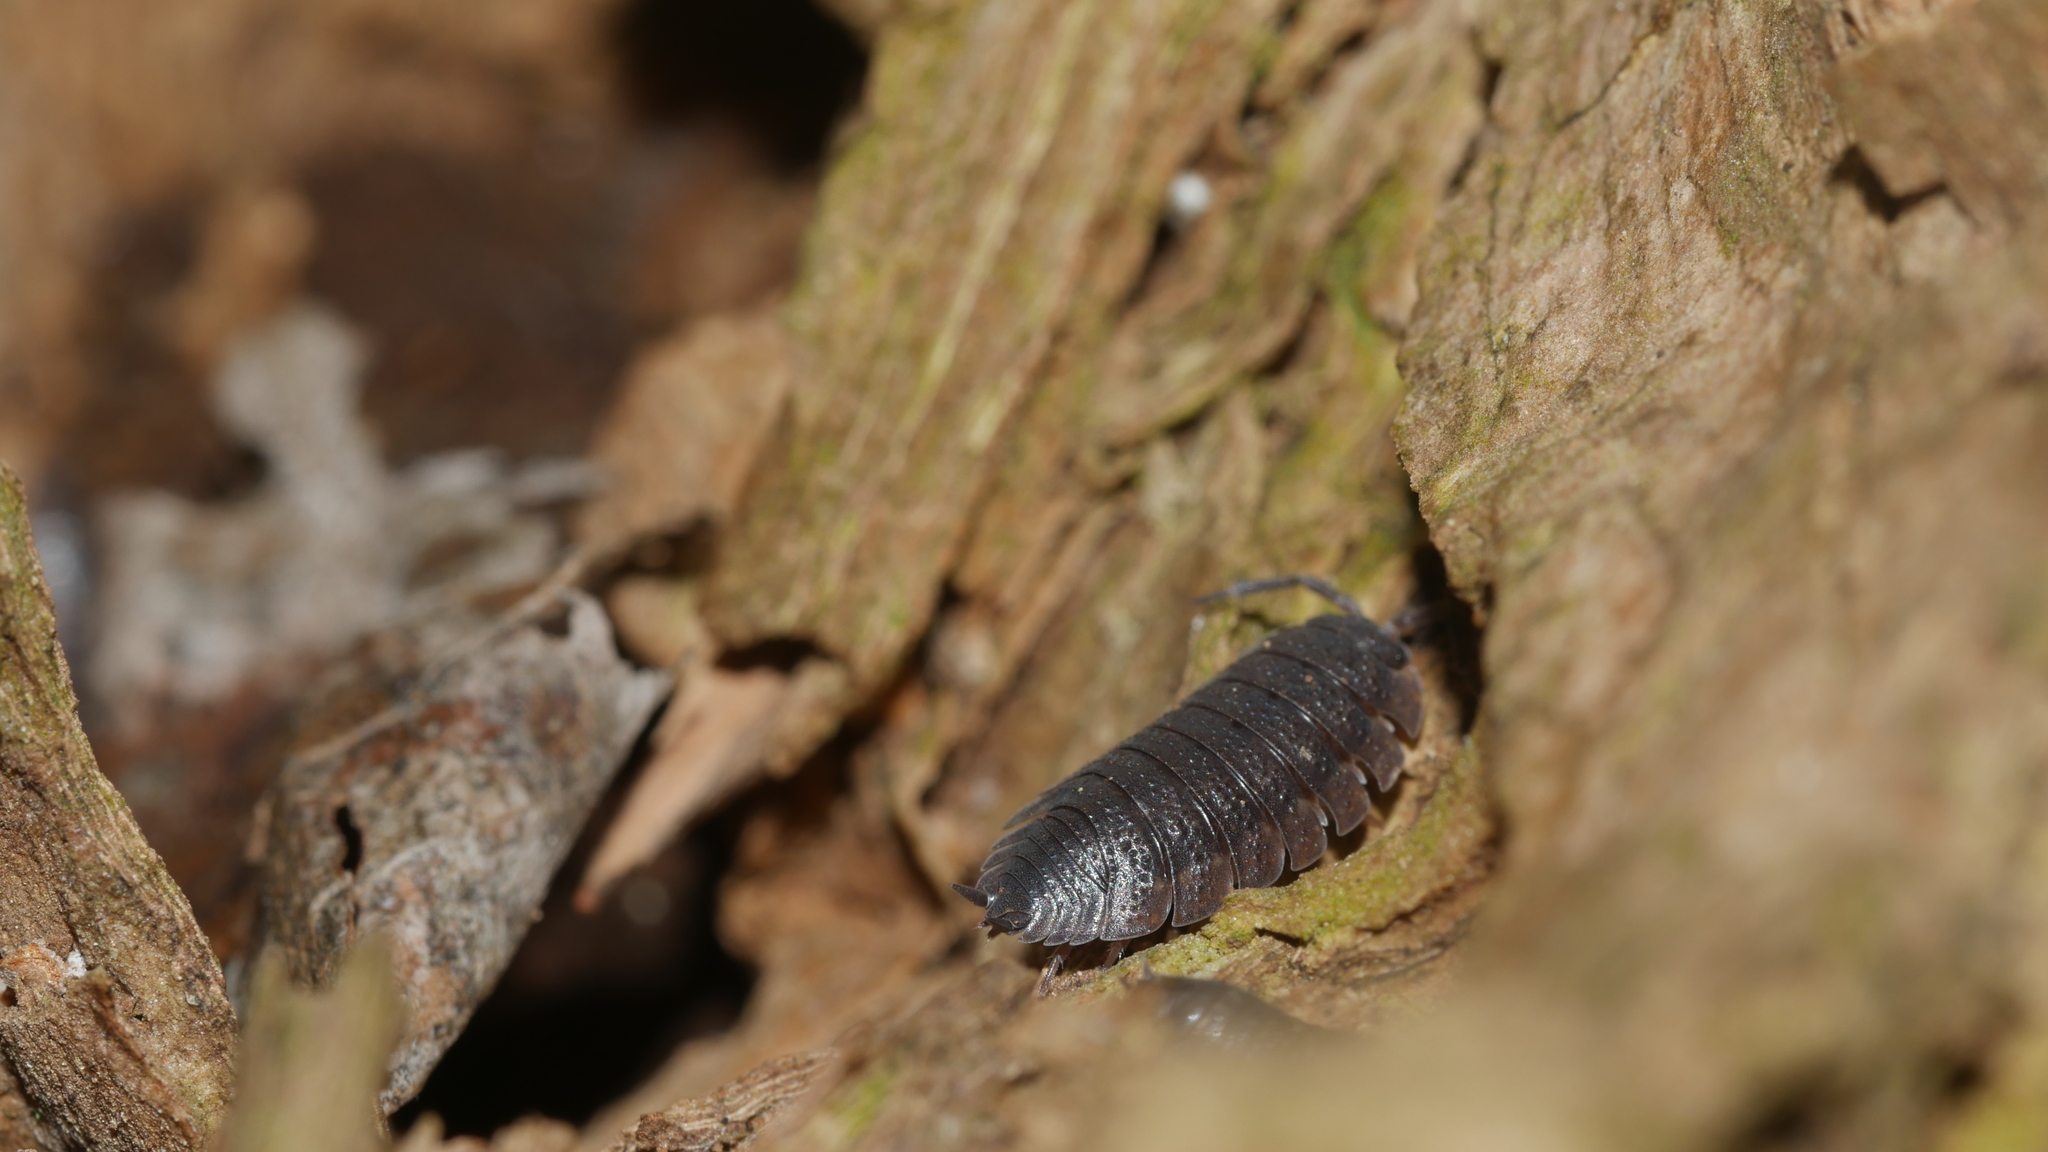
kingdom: Animalia
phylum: Arthropoda
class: Malacostraca
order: Isopoda
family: Porcellionidae
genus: Porcellio
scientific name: Porcellio scaber
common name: Common rough woodlouse
